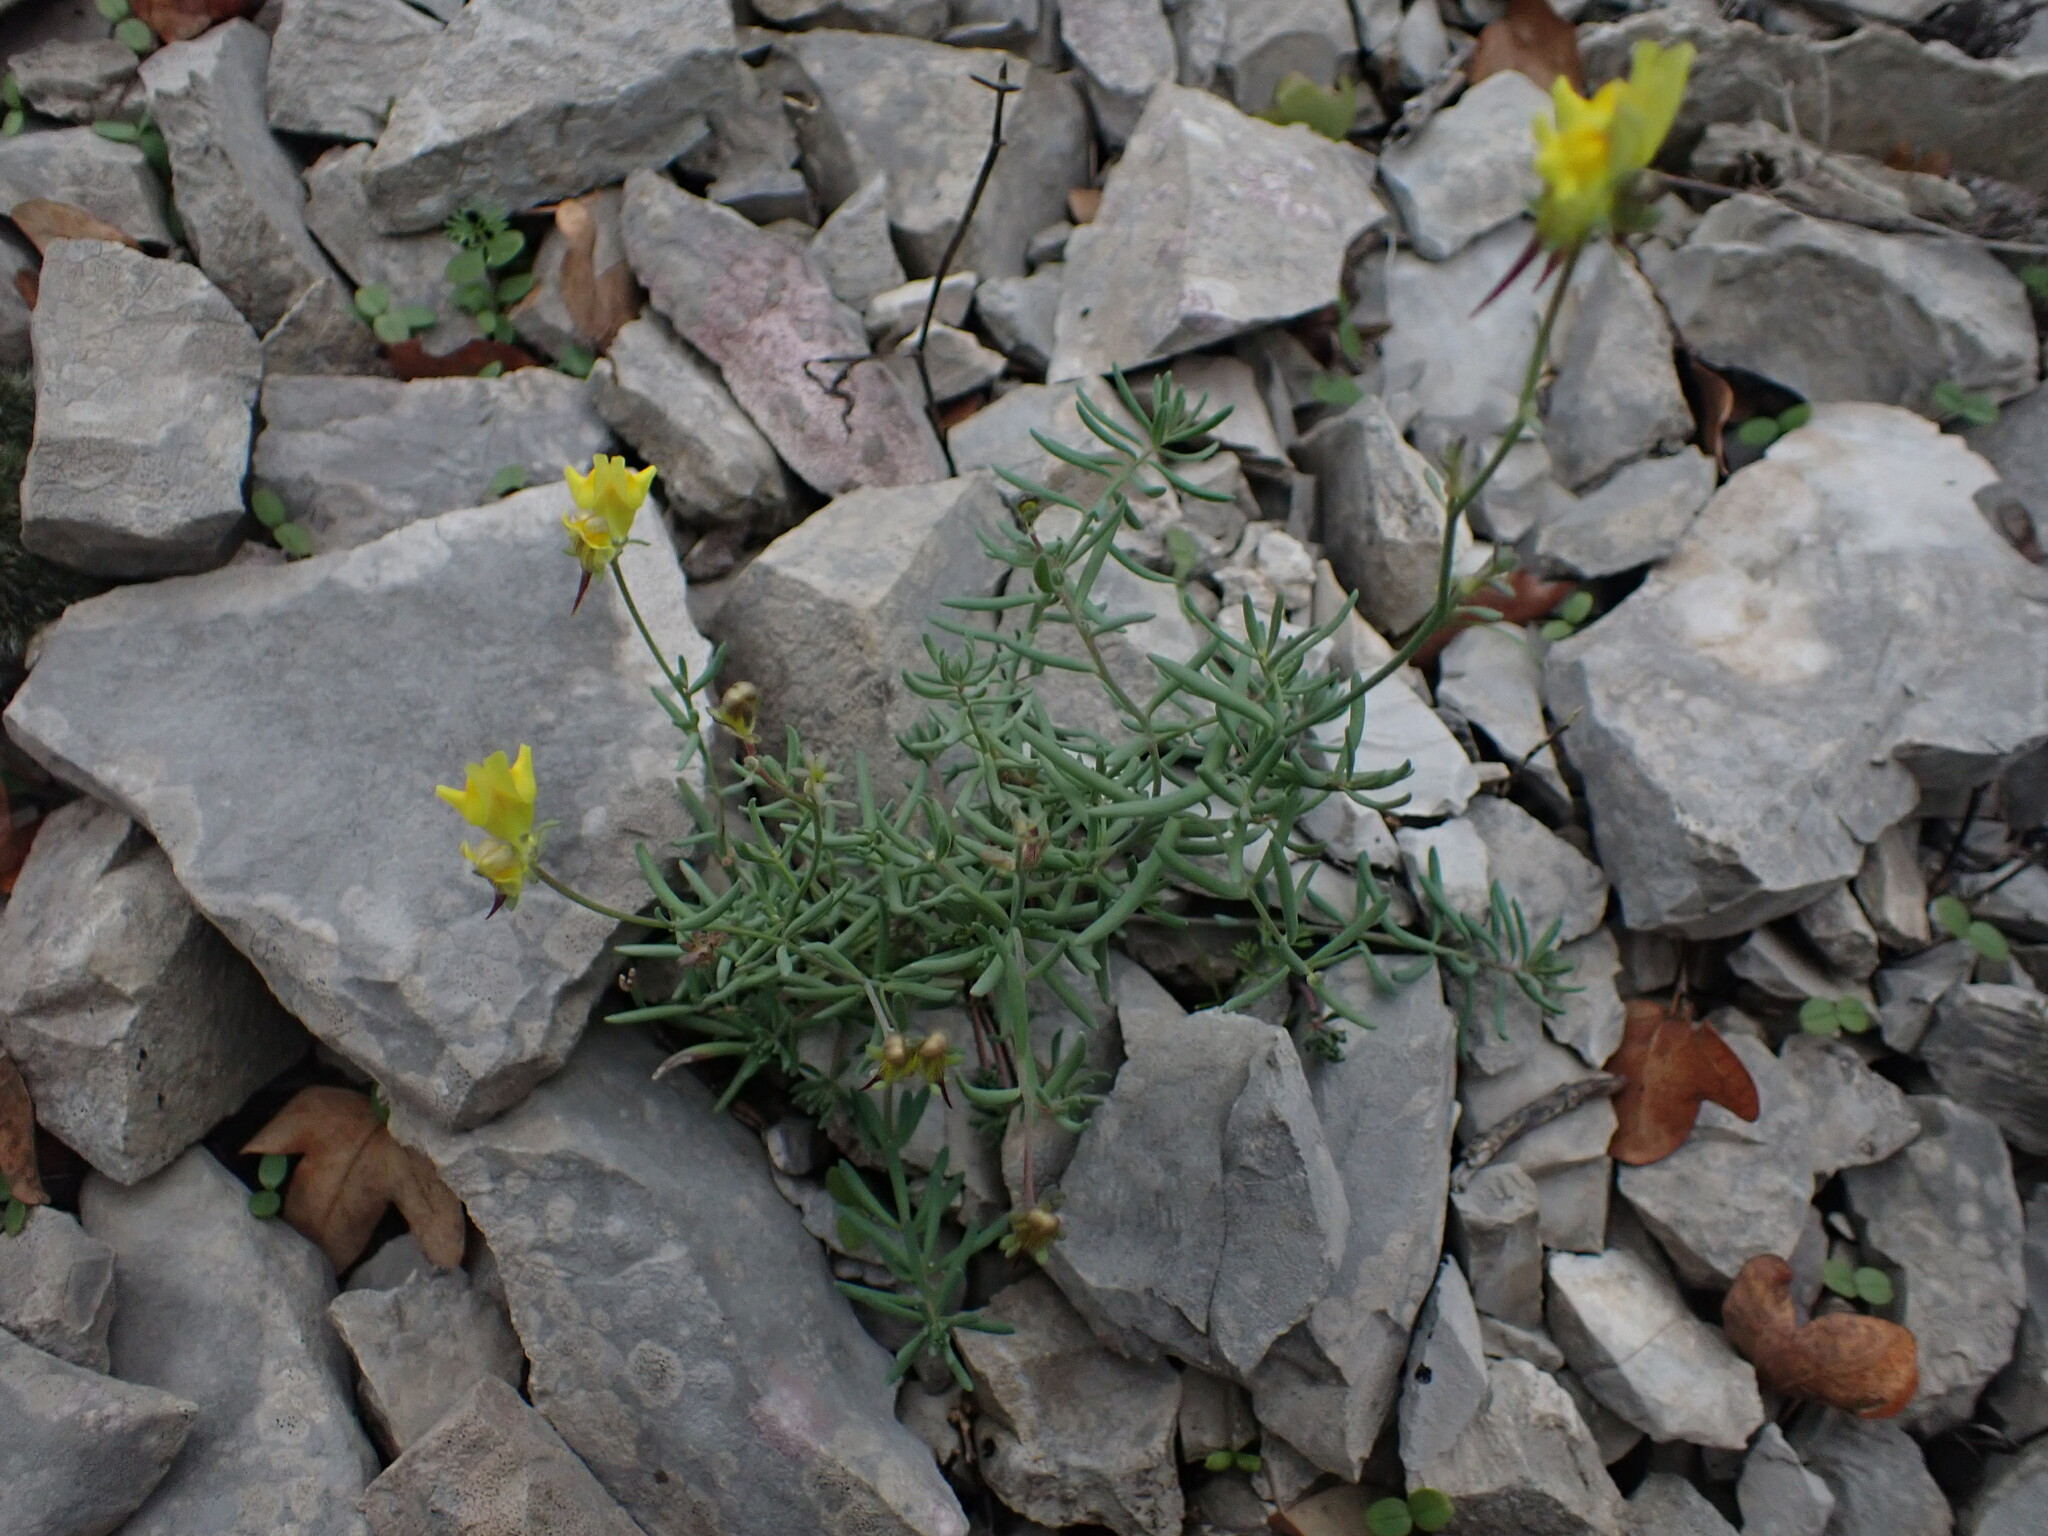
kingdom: Plantae
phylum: Tracheophyta
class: Magnoliopsida
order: Lamiales
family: Plantaginaceae
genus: Linaria
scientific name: Linaria supina
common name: Prostrate toadflax
